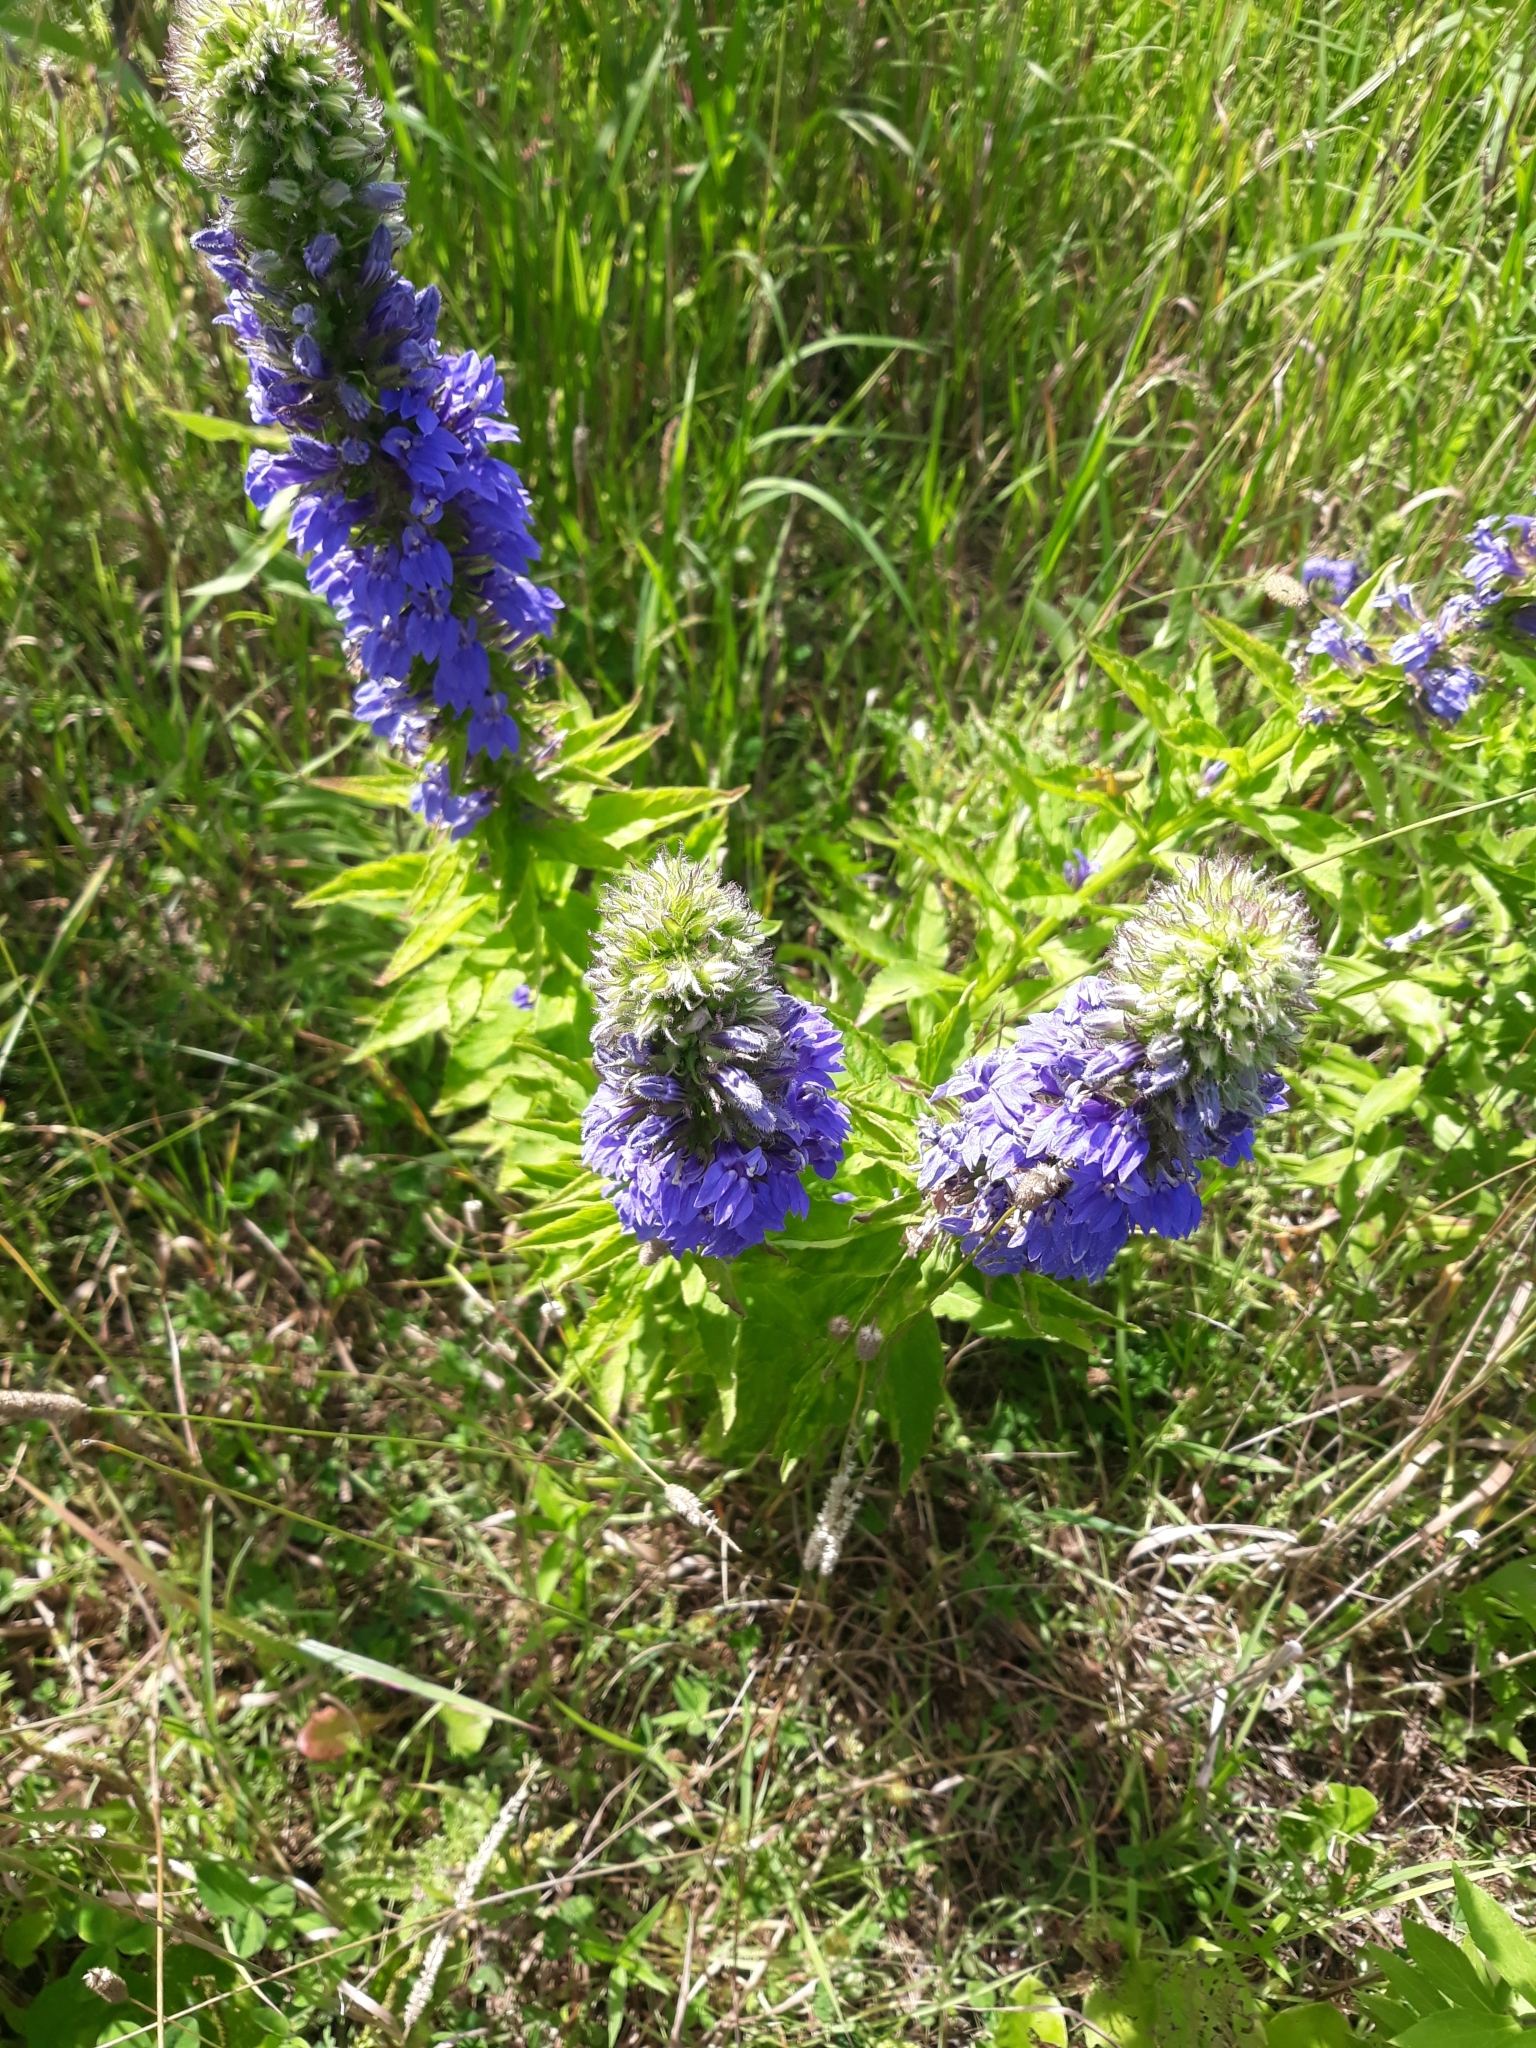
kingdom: Plantae
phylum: Tracheophyta
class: Magnoliopsida
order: Asterales
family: Campanulaceae
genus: Lobelia
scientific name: Lobelia siphilitica
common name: Great lobelia
